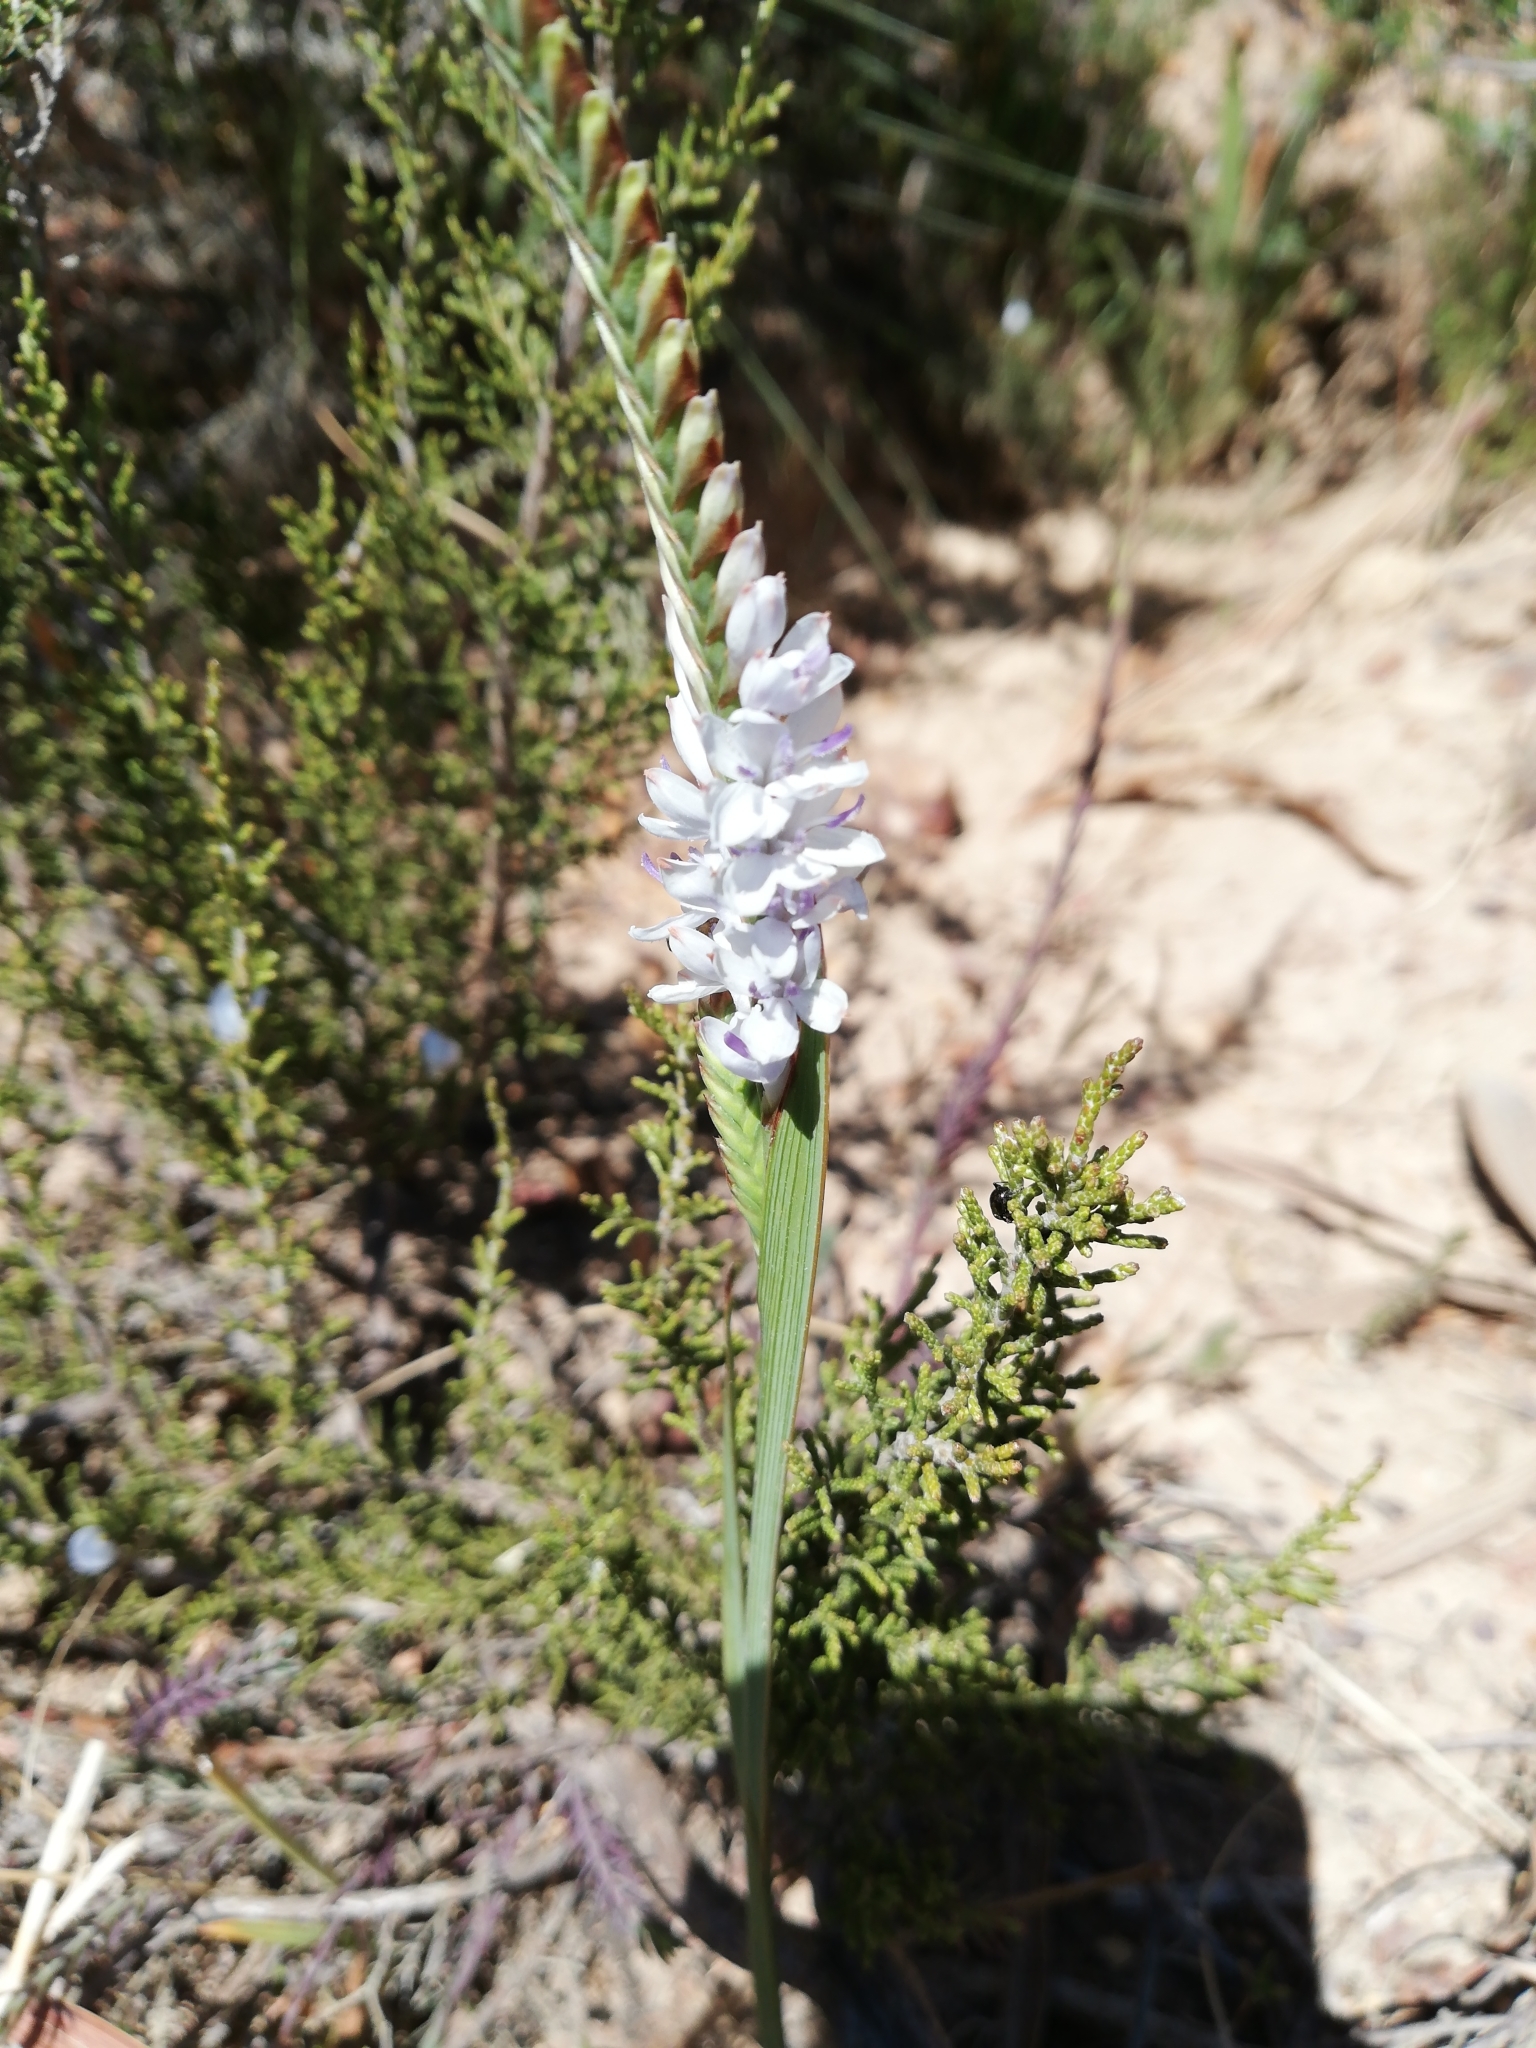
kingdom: Plantae
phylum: Tracheophyta
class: Liliopsida
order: Asparagales
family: Iridaceae
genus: Micranthus
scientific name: Micranthus alopecuroides
